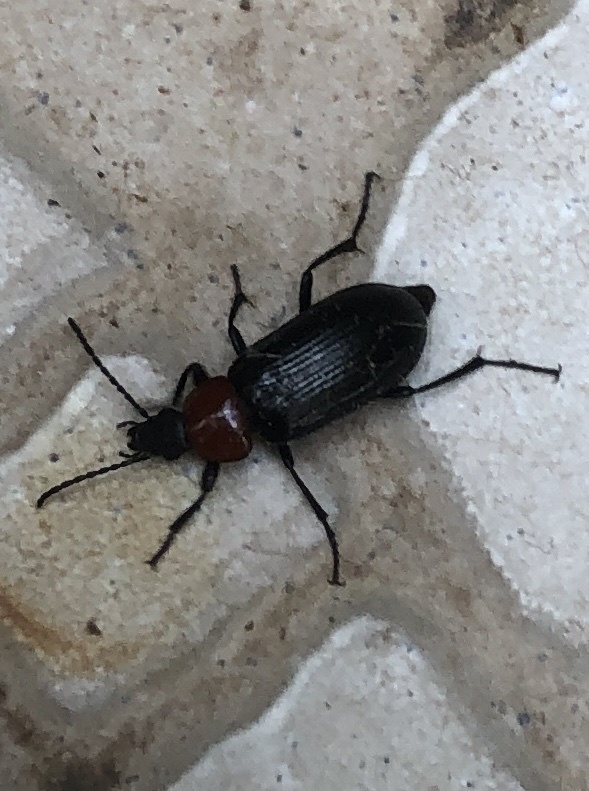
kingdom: Animalia
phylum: Arthropoda
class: Insecta
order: Coleoptera
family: Tenebrionidae
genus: Heliotaurus
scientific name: Heliotaurus ruficollis
